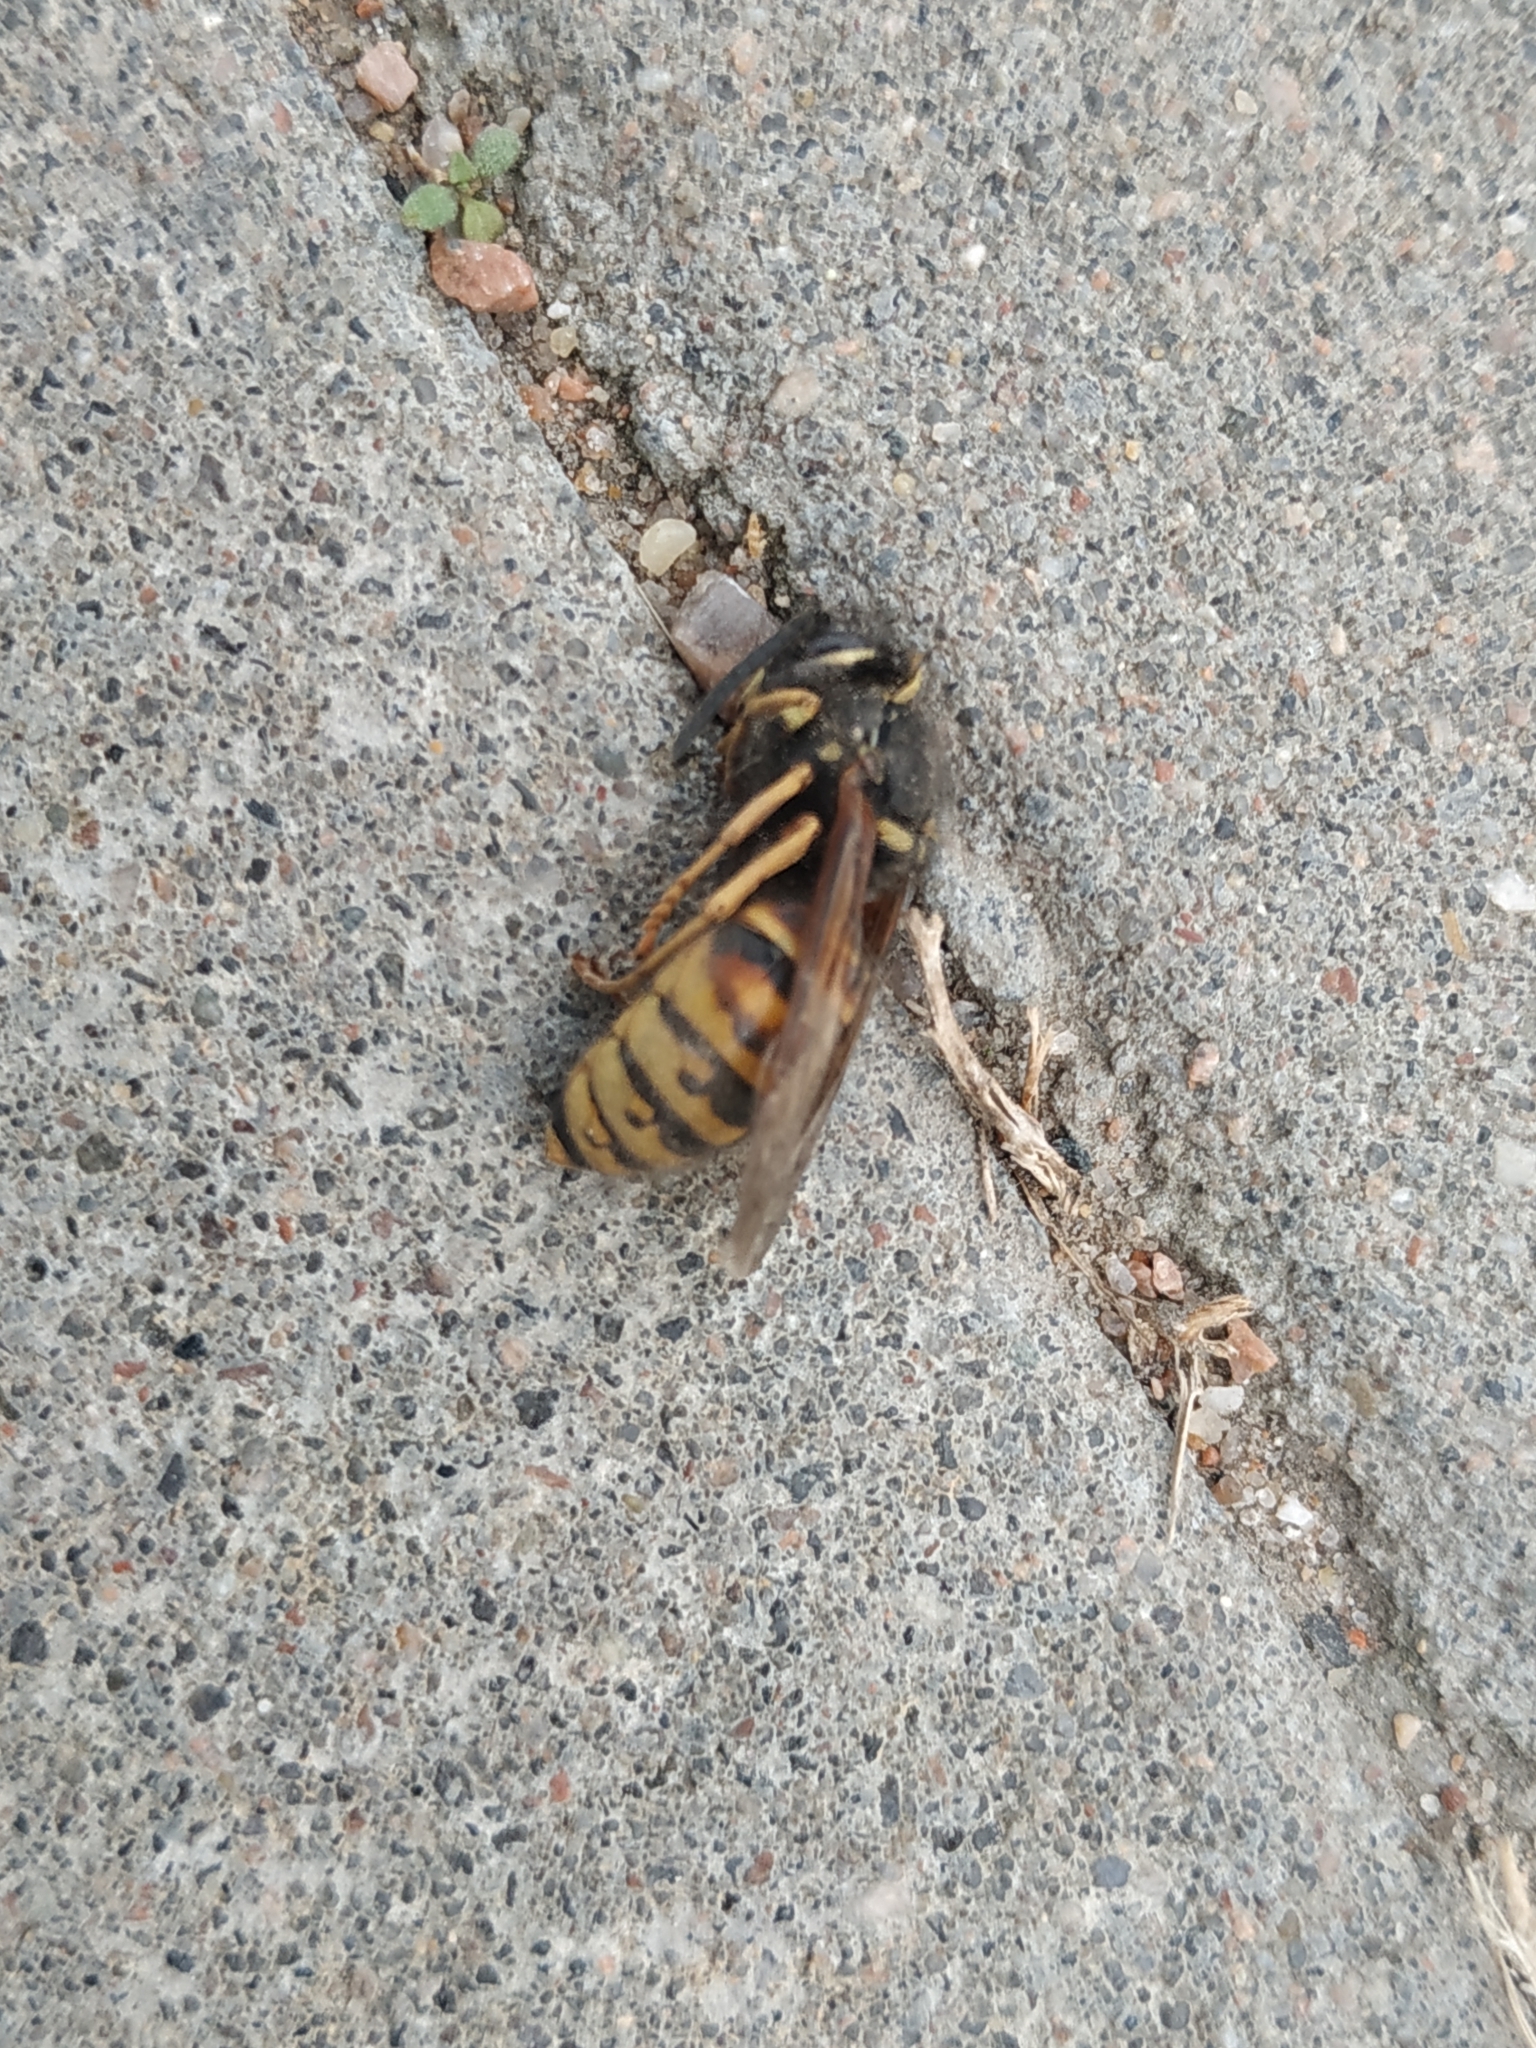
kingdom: Animalia
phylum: Arthropoda
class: Insecta
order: Hymenoptera
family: Vespidae
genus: Vespula
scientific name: Vespula rufa
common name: Red wasp
